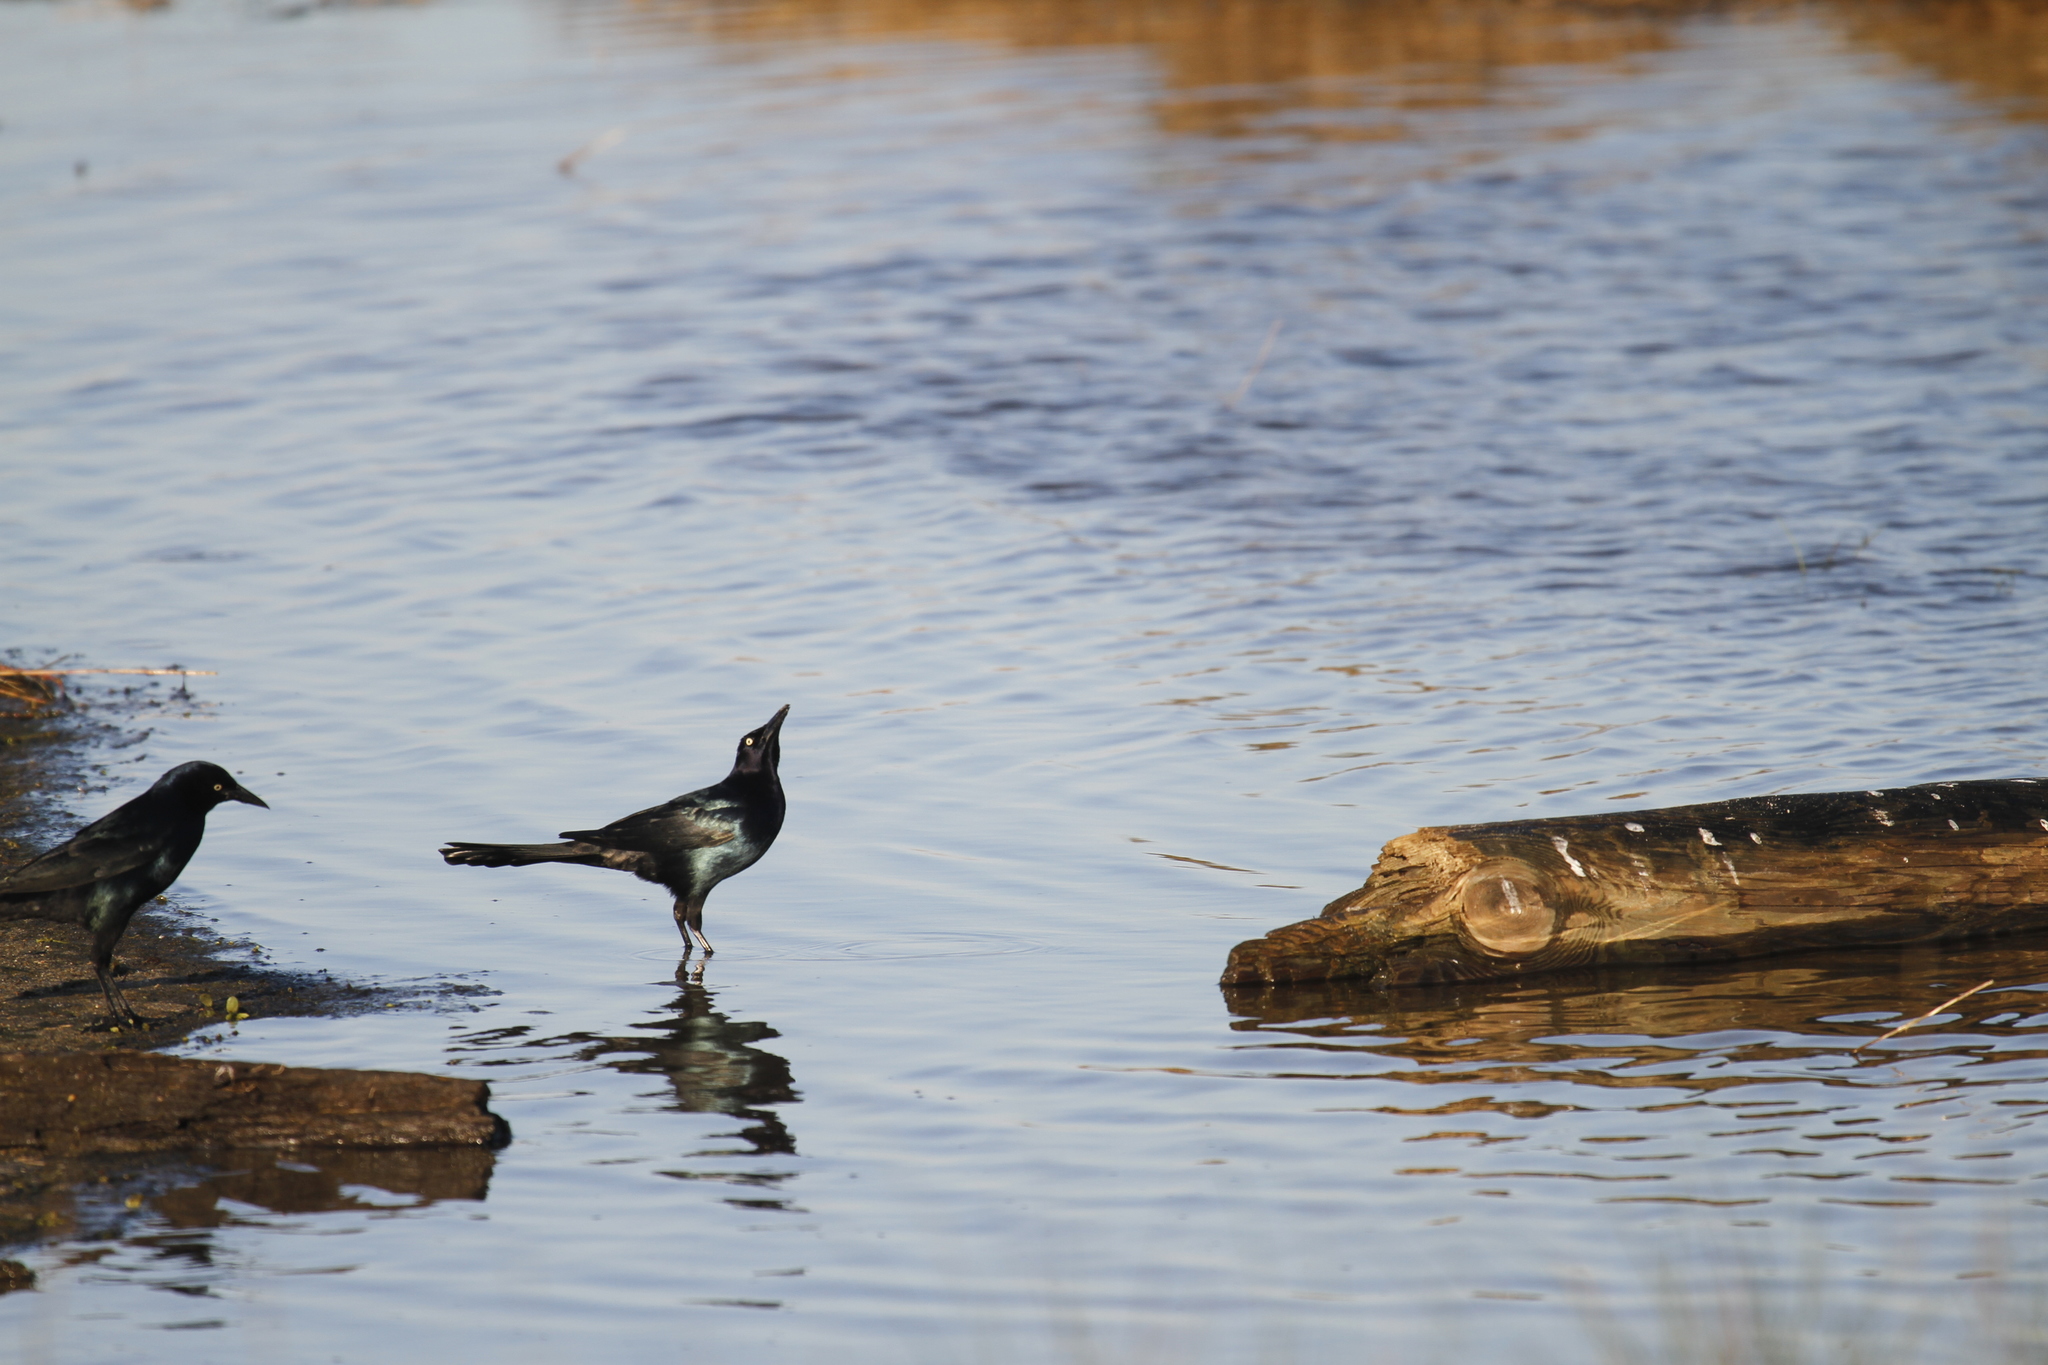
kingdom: Animalia
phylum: Chordata
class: Aves
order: Passeriformes
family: Icteridae
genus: Quiscalus
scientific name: Quiscalus major
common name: Boat-tailed grackle
